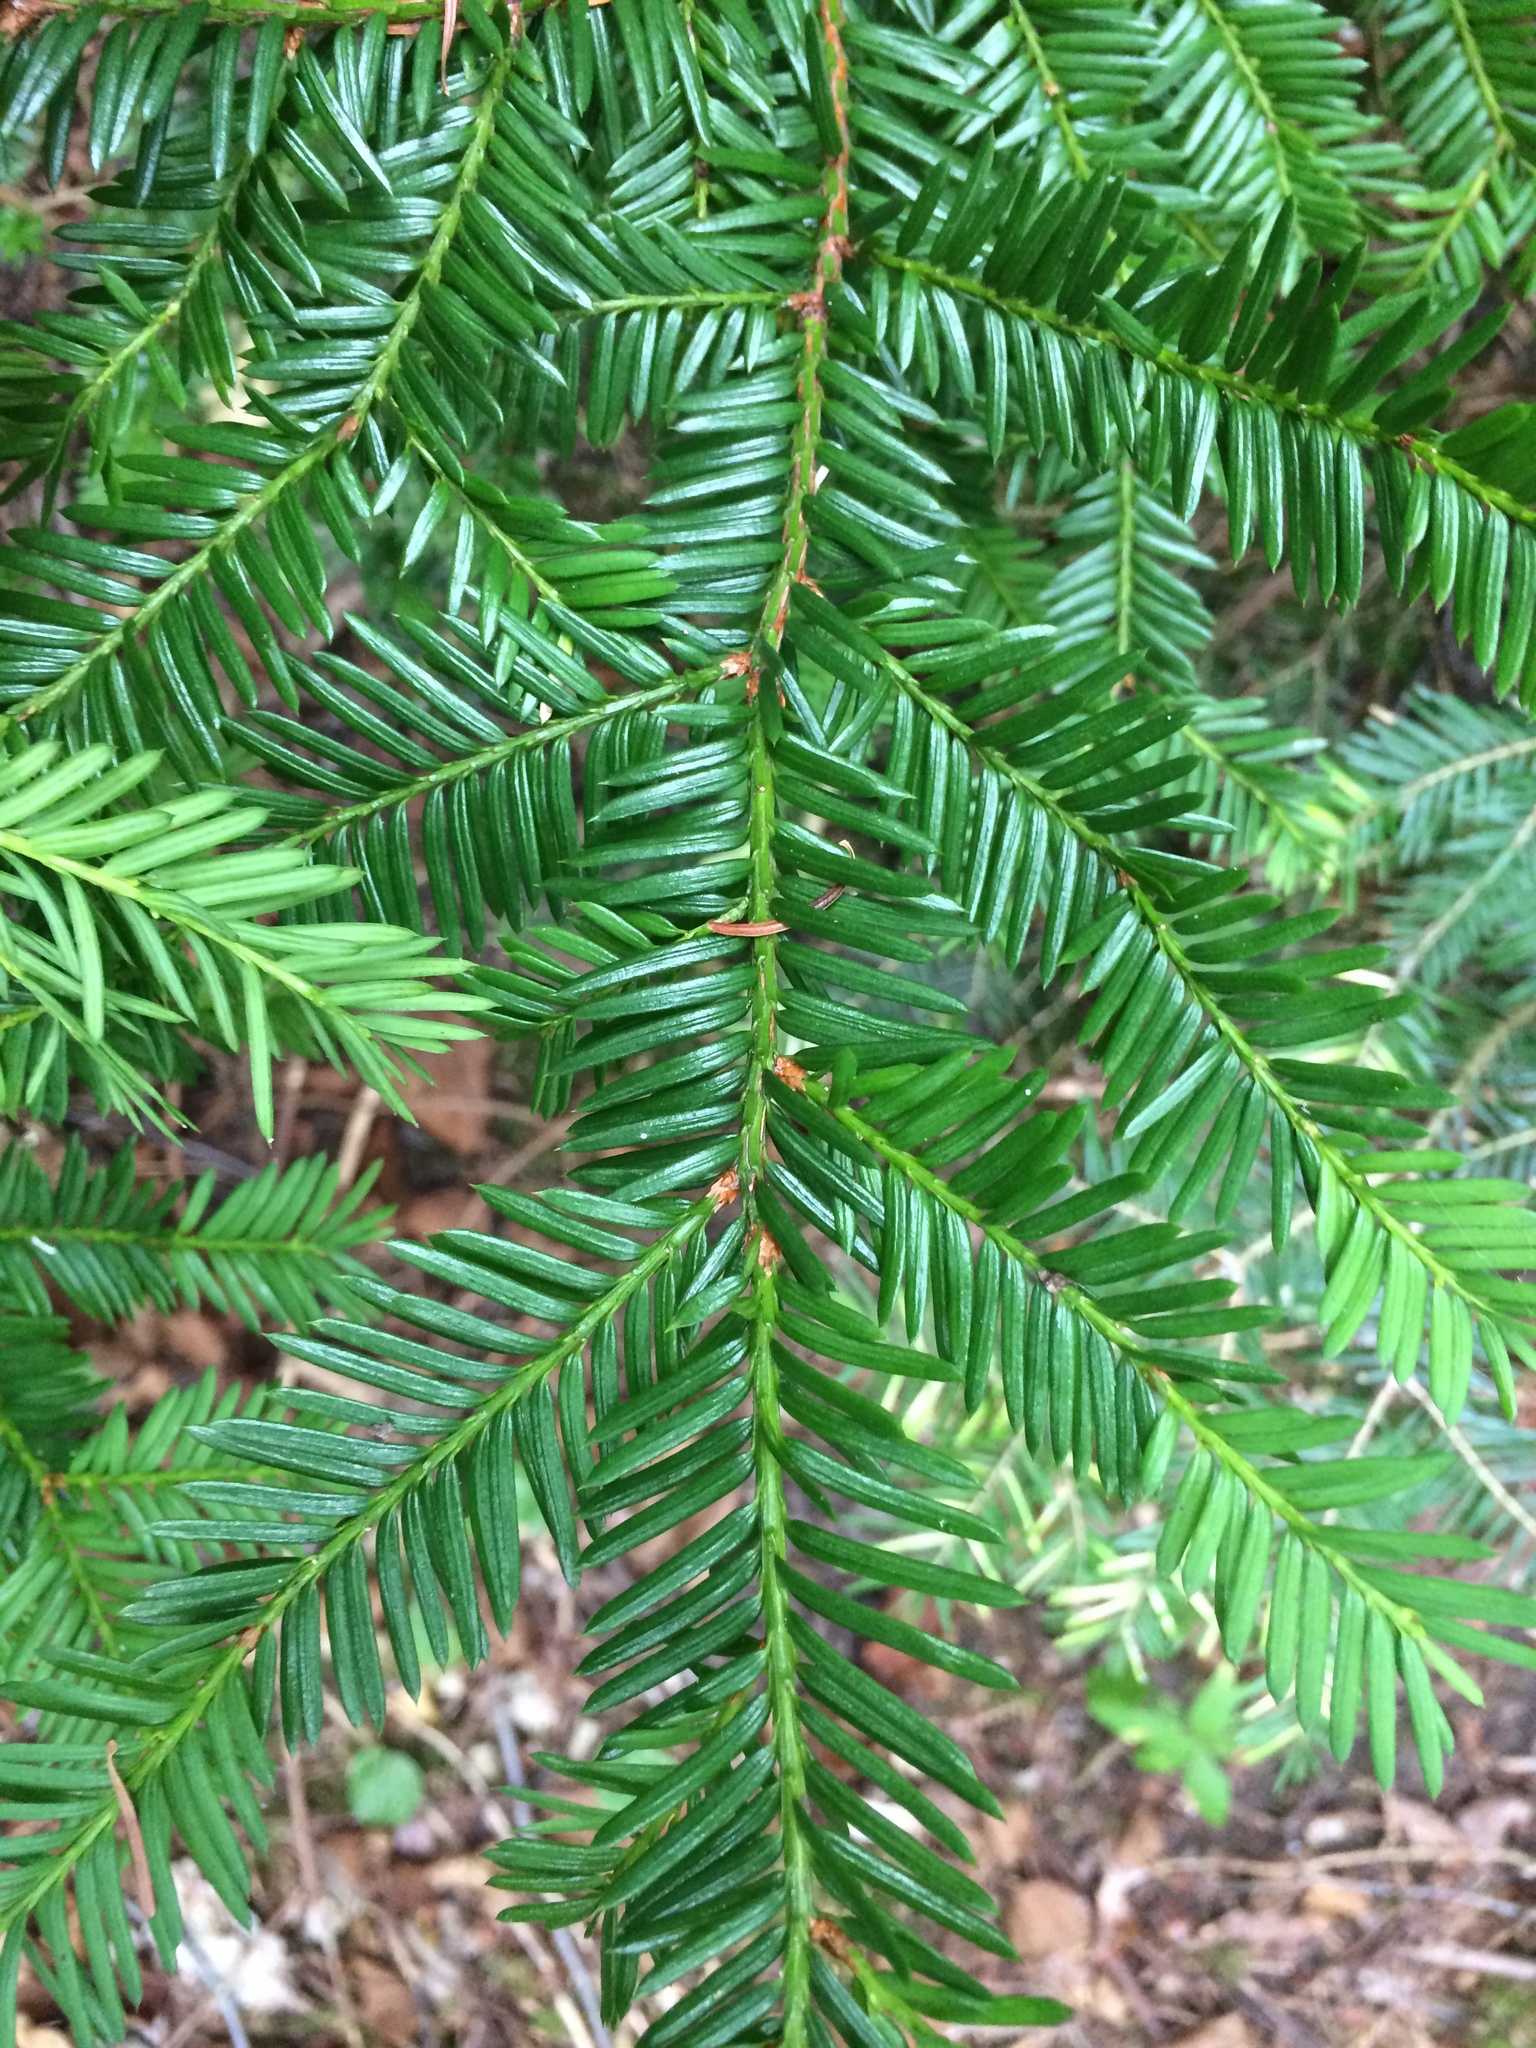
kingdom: Plantae
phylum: Tracheophyta
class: Pinopsida
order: Pinales
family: Taxaceae
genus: Taxus
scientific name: Taxus canadensis
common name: American yew
